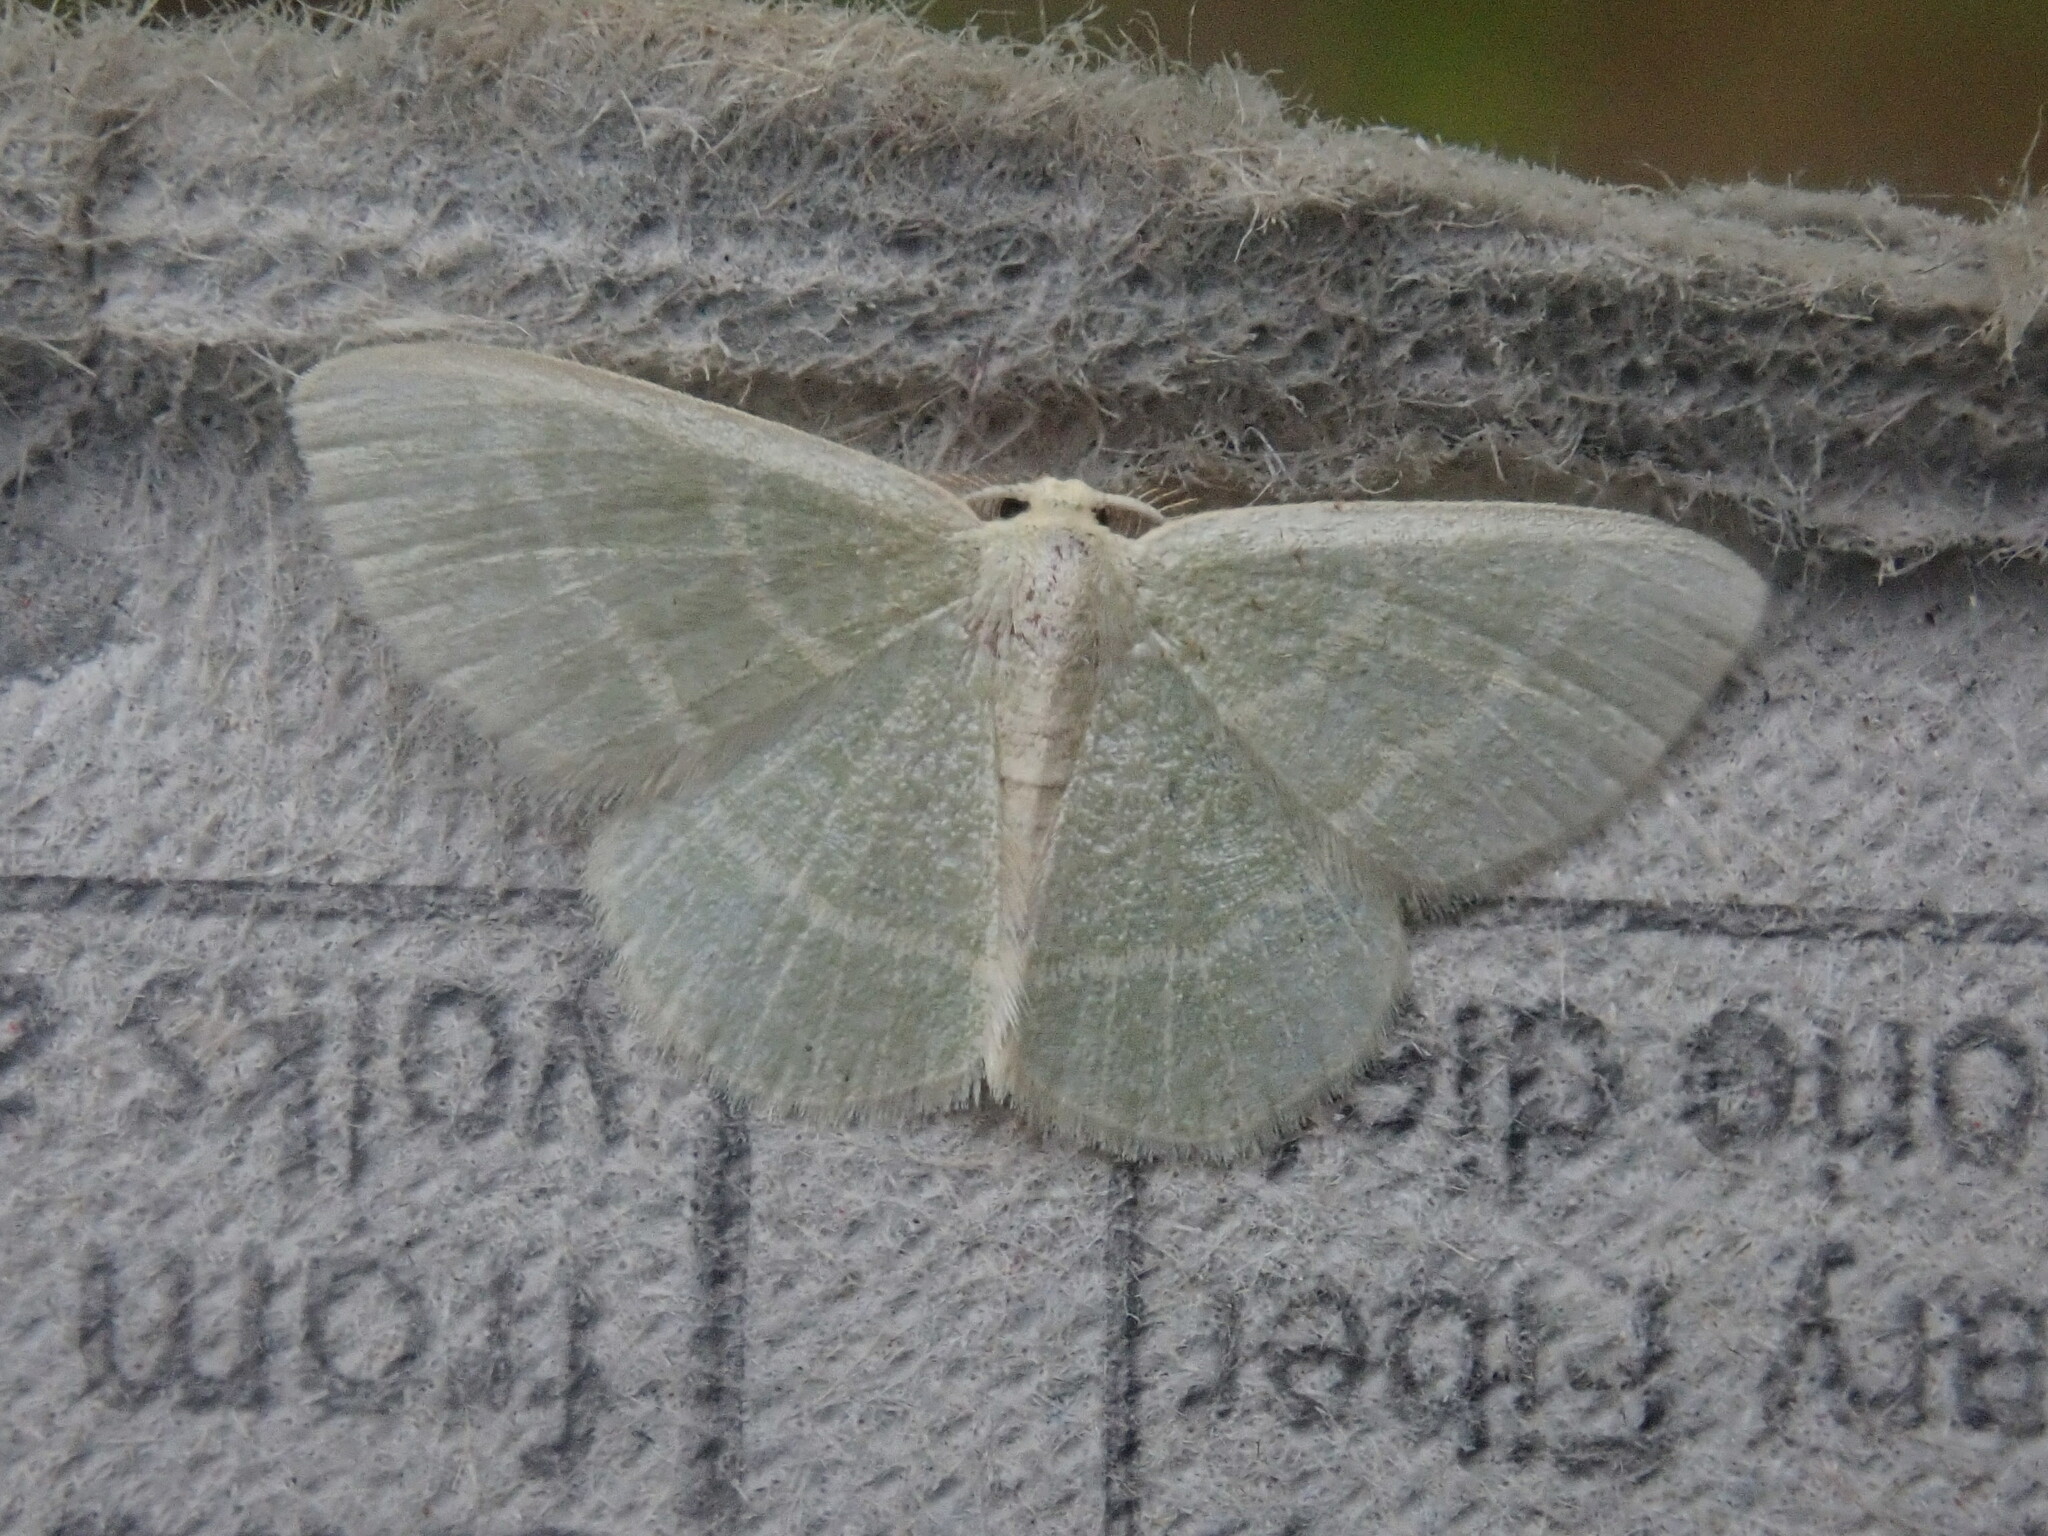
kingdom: Animalia
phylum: Arthropoda
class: Insecta
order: Lepidoptera
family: Geometridae
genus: Chlorochlamys
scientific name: Chlorochlamys chloroleucaria
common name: Blackberry looper
